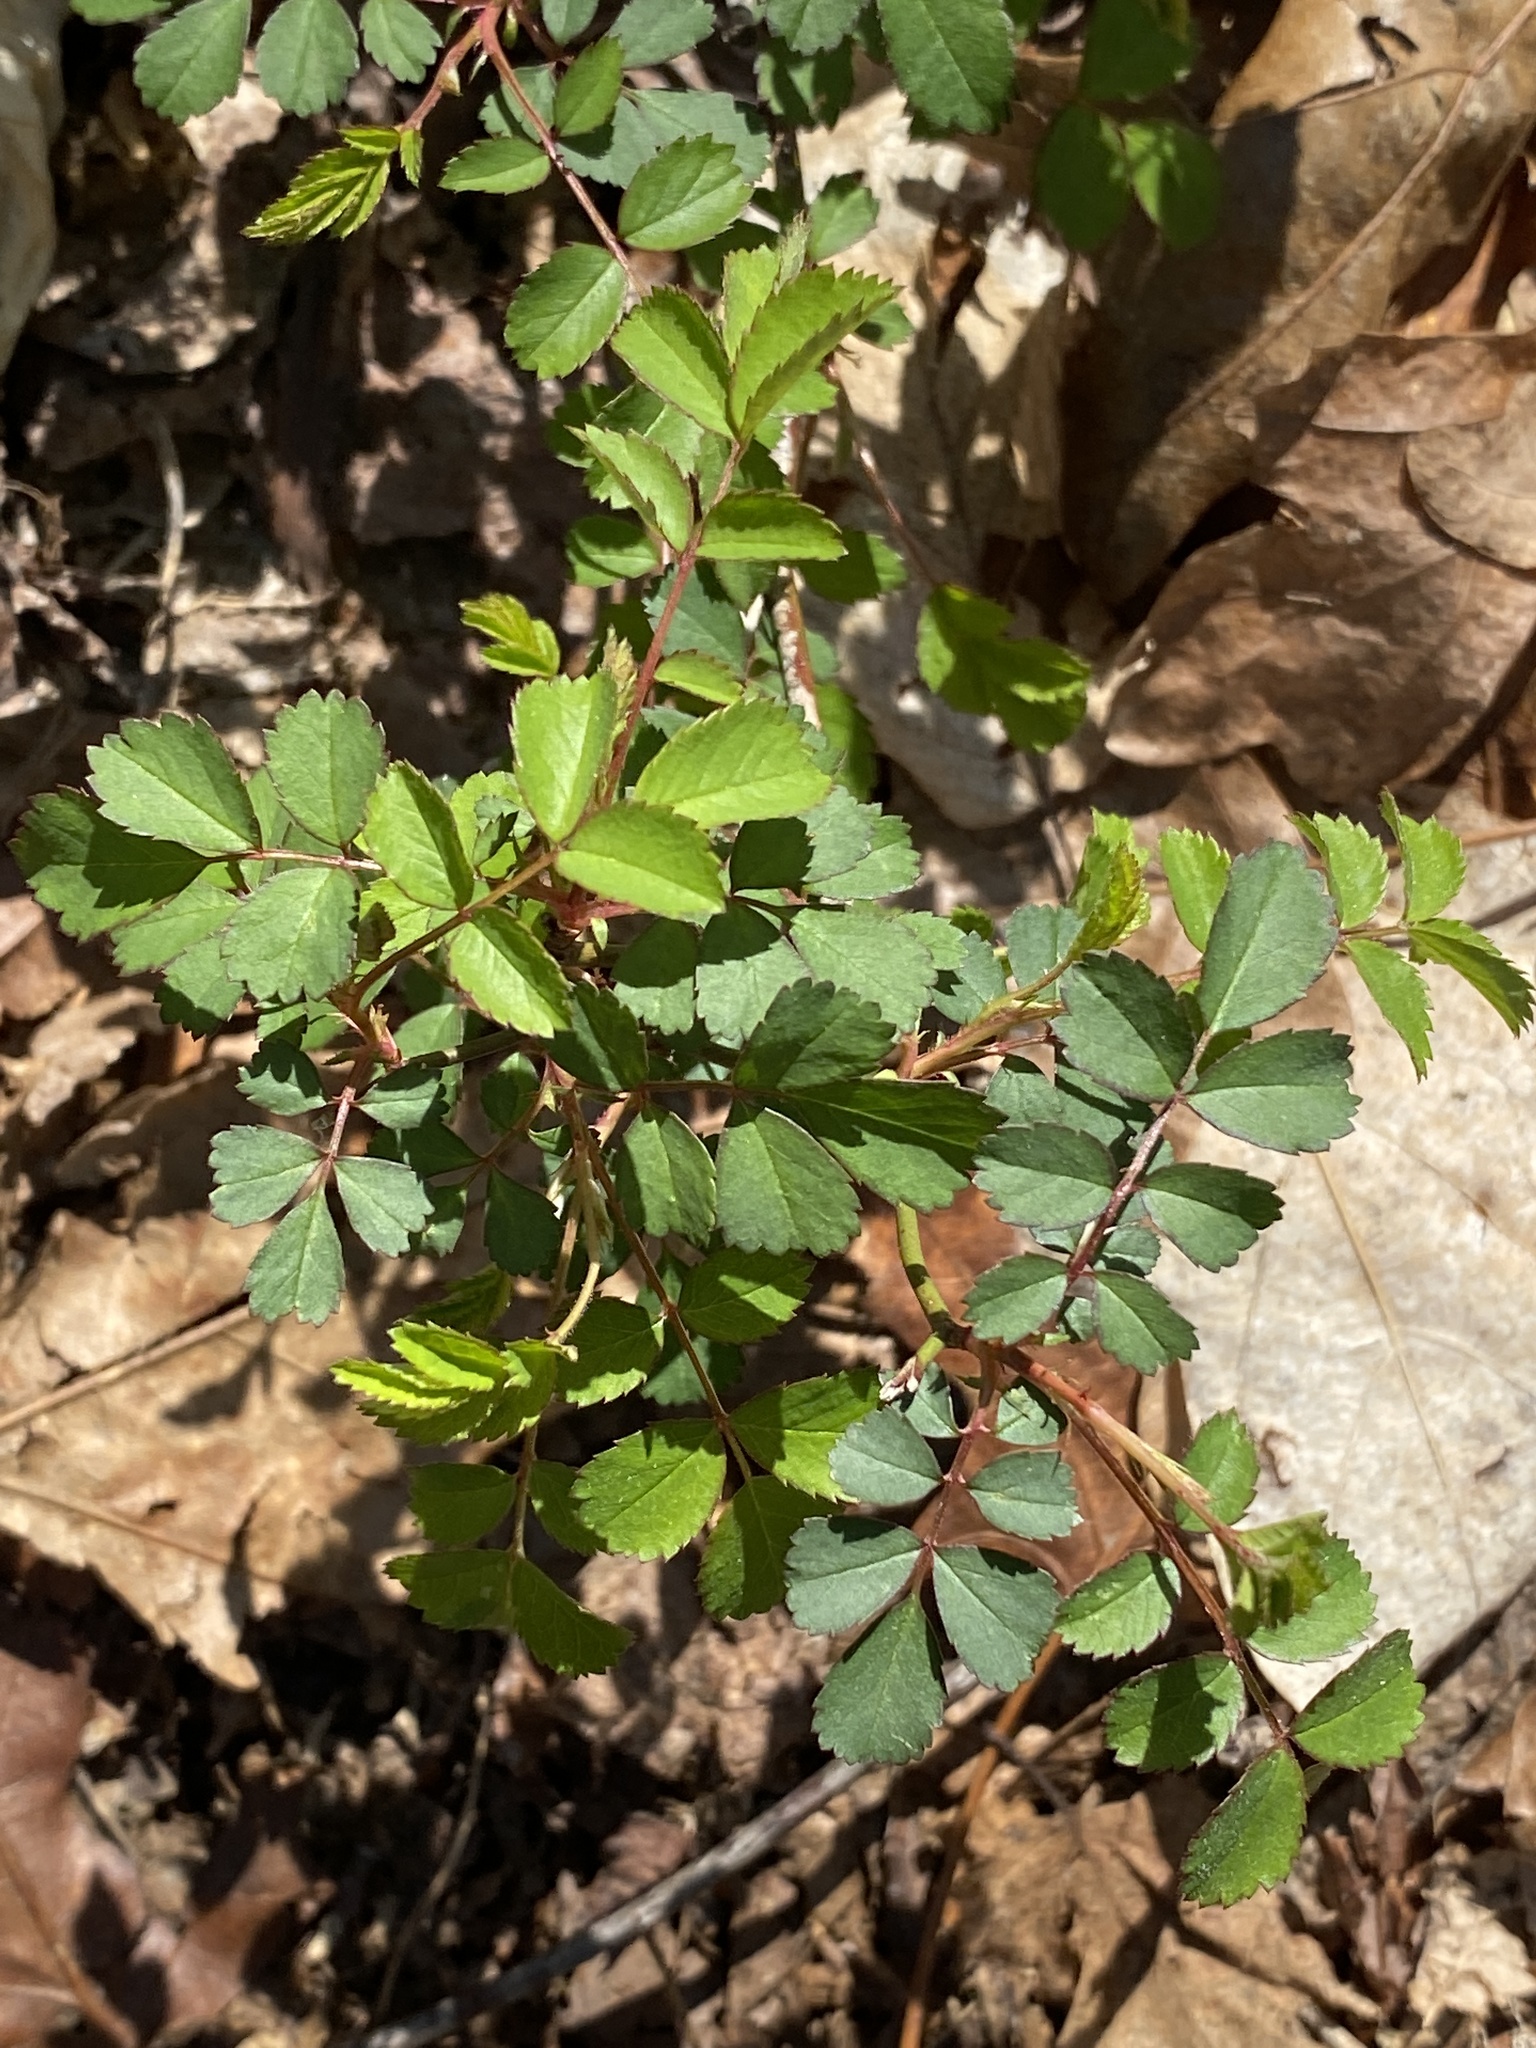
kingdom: Plantae
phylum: Tracheophyta
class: Magnoliopsida
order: Rosales
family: Rosaceae
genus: Rosa
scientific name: Rosa multiflora
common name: Multiflora rose
